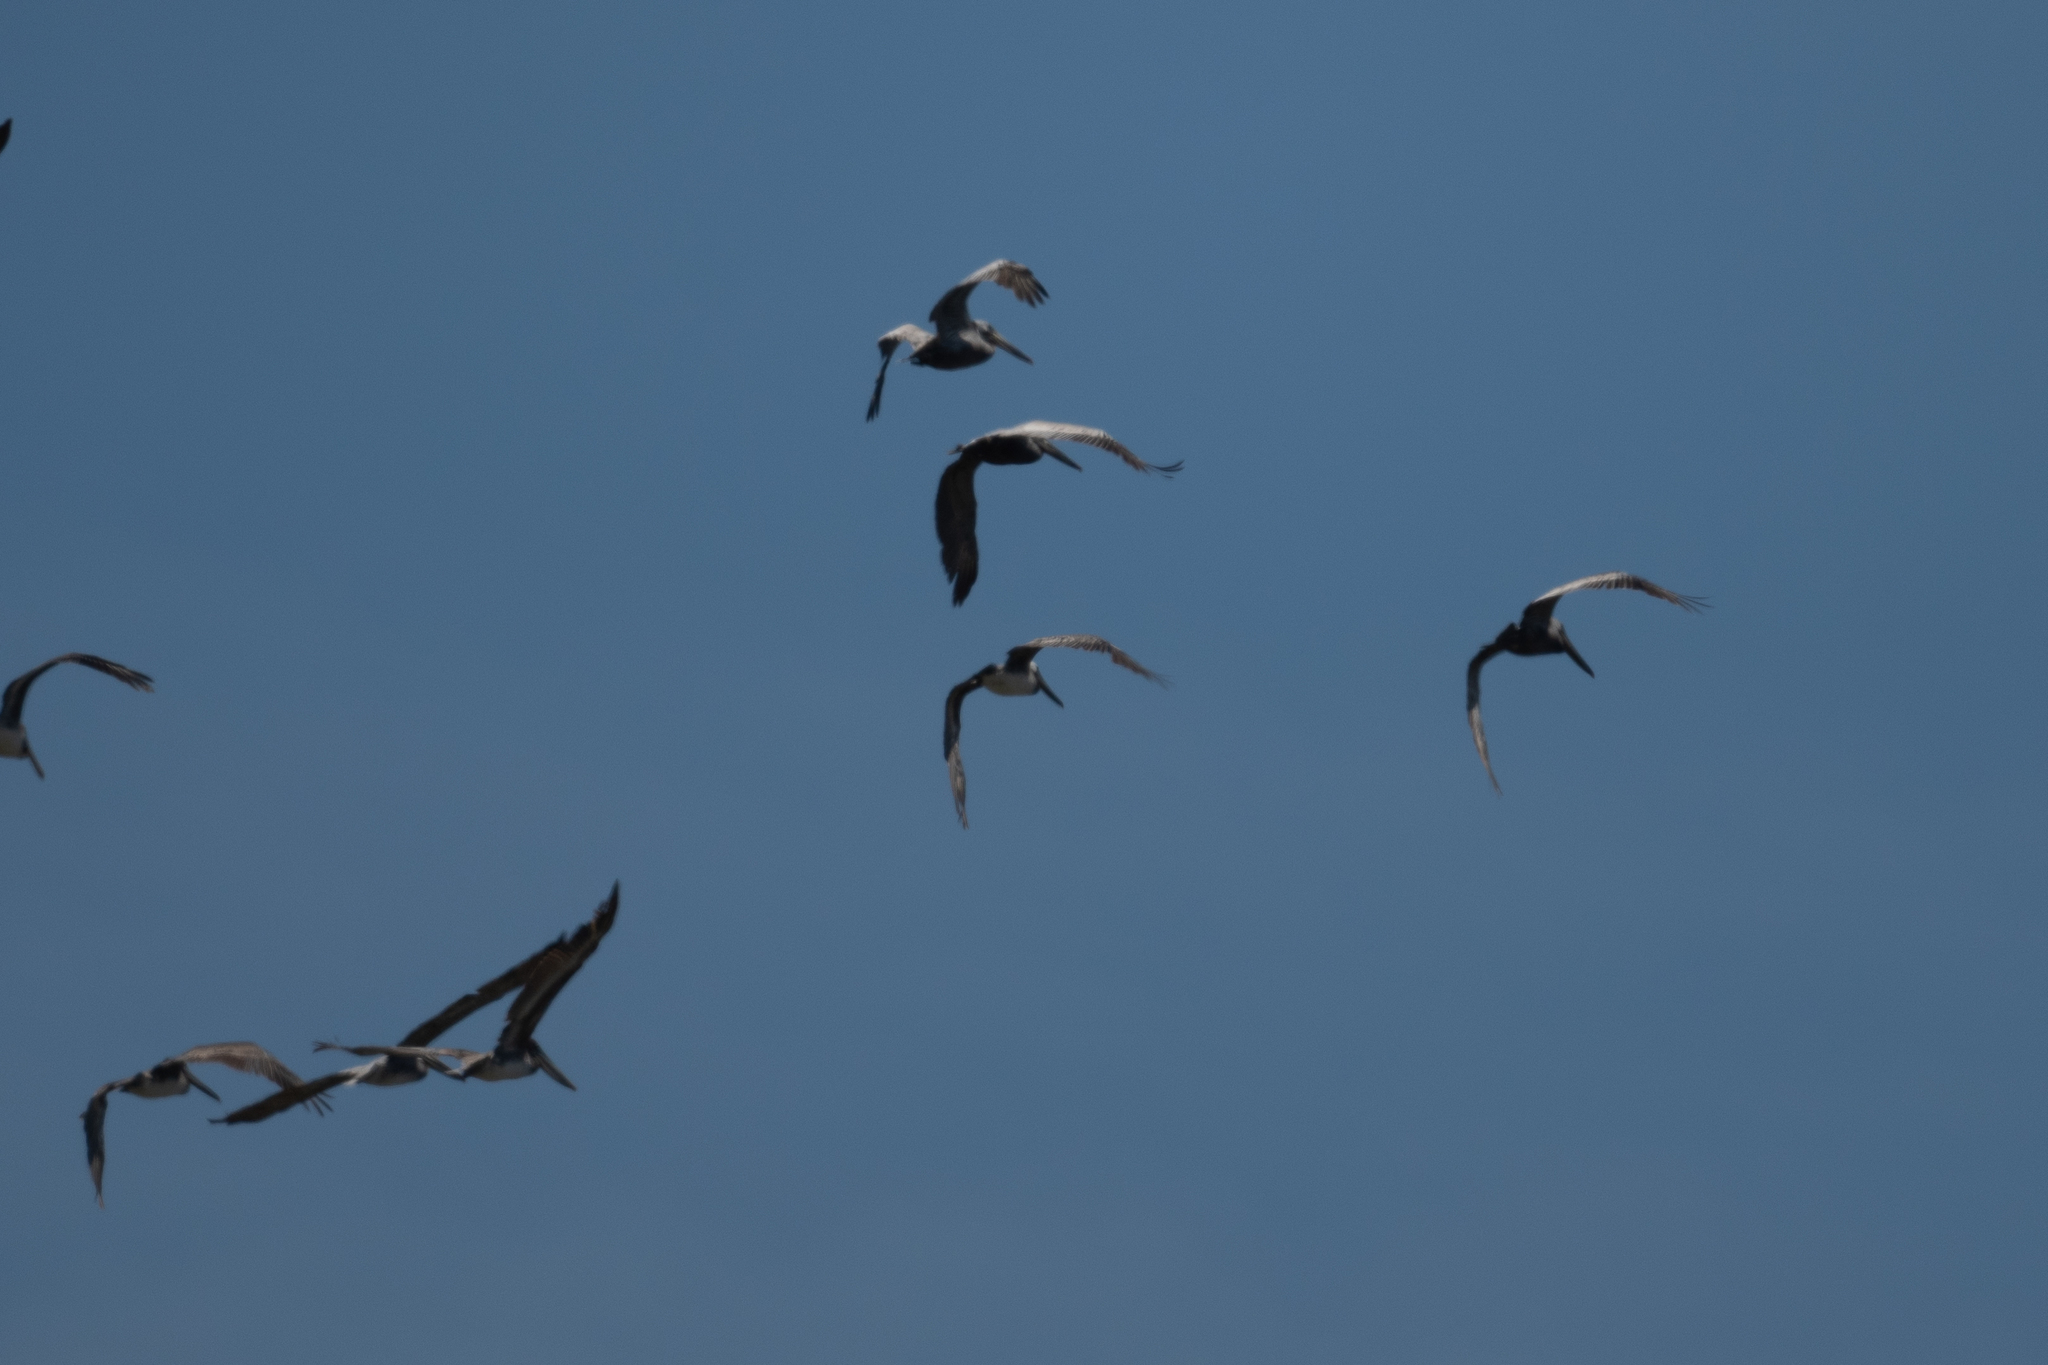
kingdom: Animalia
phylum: Chordata
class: Aves
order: Pelecaniformes
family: Pelecanidae
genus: Pelecanus
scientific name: Pelecanus occidentalis
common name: Brown pelican
